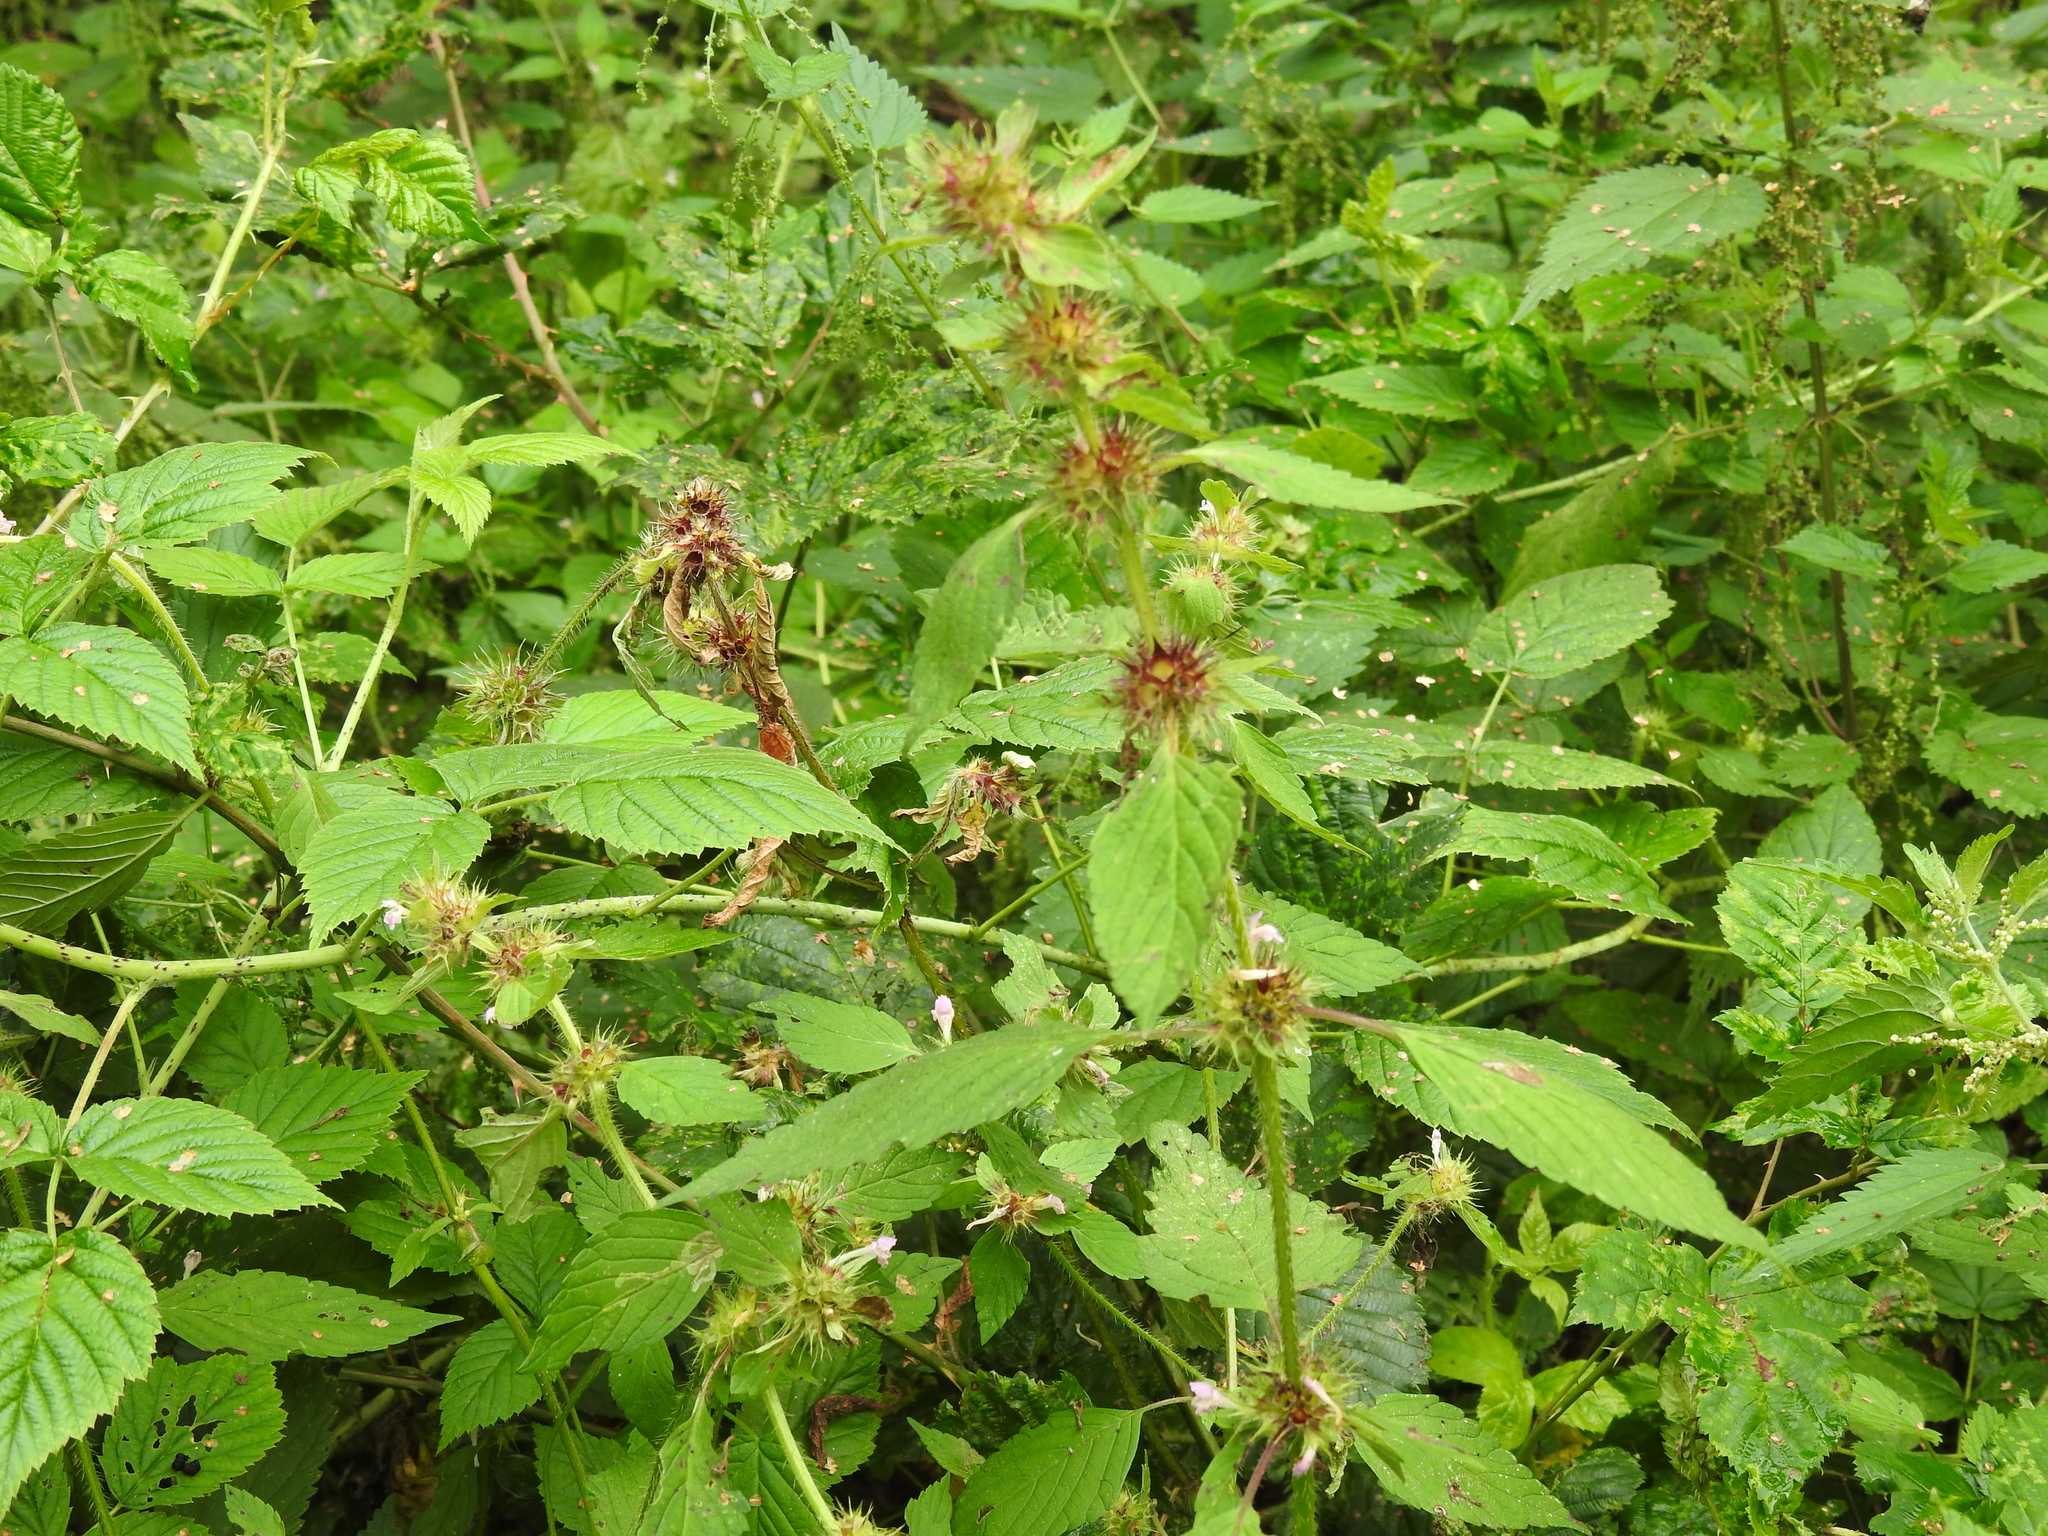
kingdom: Plantae
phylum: Tracheophyta
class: Magnoliopsida
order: Lamiales
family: Lamiaceae
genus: Galeopsis
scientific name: Galeopsis tetrahit
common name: Common hemp-nettle
